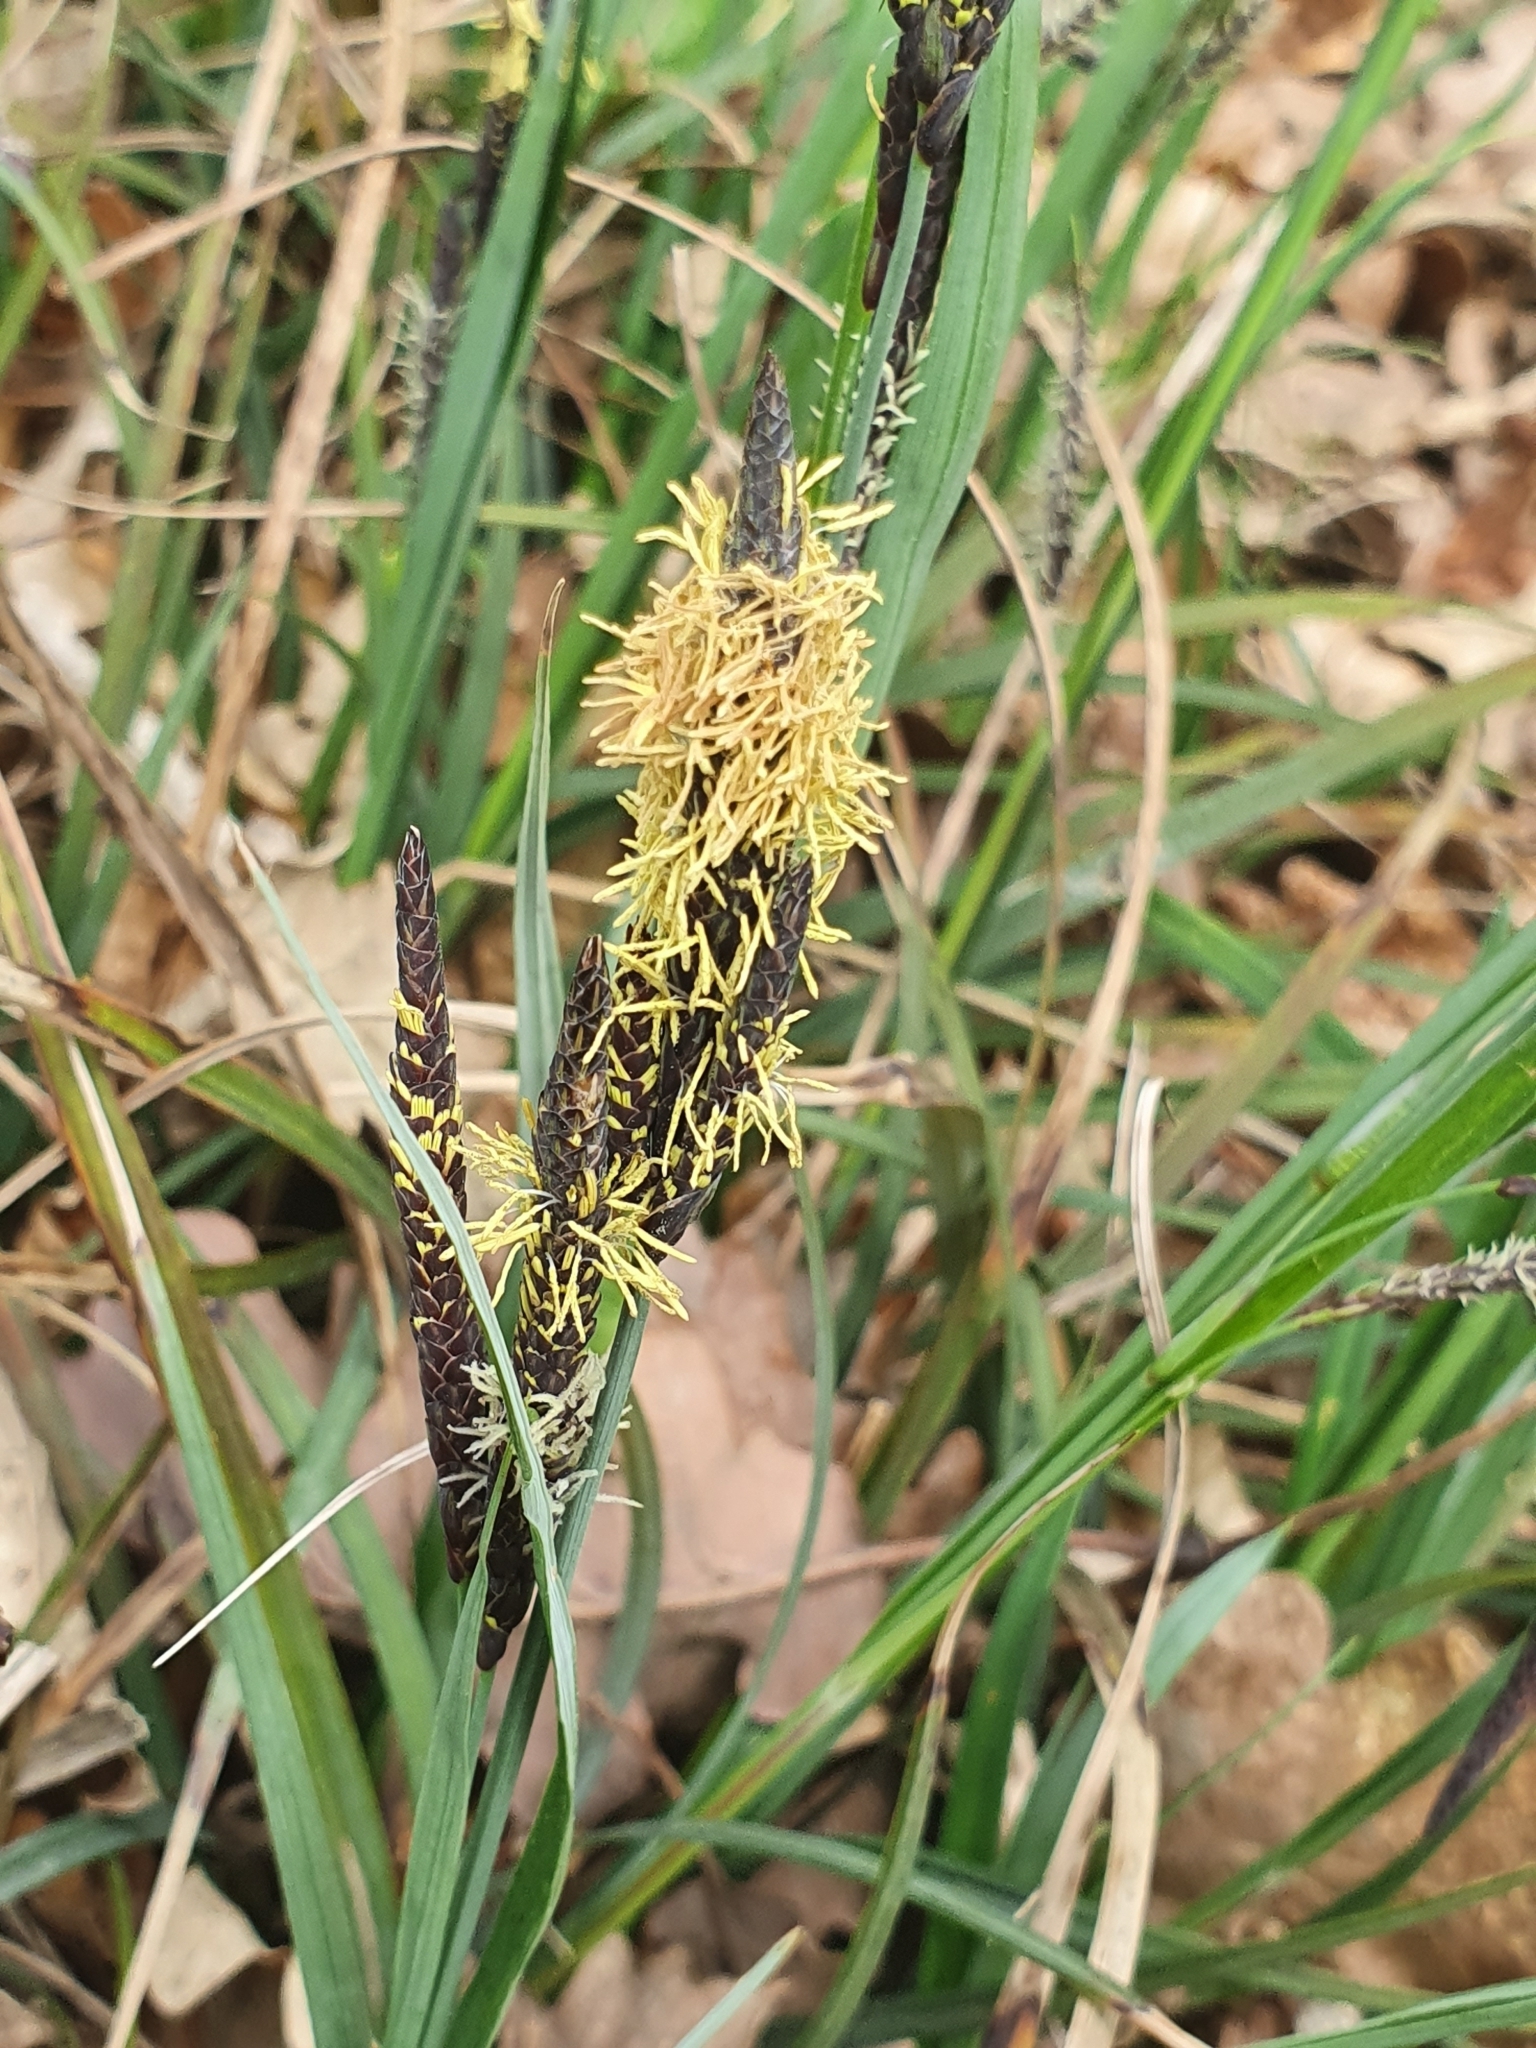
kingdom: Plantae
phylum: Tracheophyta
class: Liliopsida
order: Poales
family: Cyperaceae
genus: Carex
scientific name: Carex flacca
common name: Glaucous sedge
